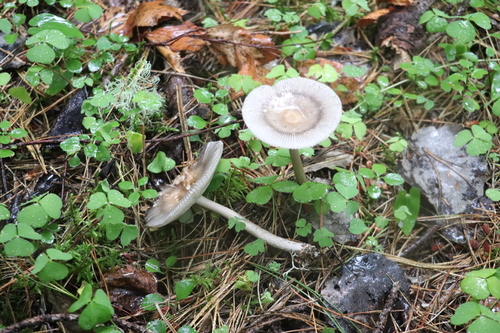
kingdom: Fungi
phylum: Basidiomycota
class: Agaricomycetes
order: Agaricales
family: Amanitaceae
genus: Amanita
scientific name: Amanita battarrae
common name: Banded amanita
